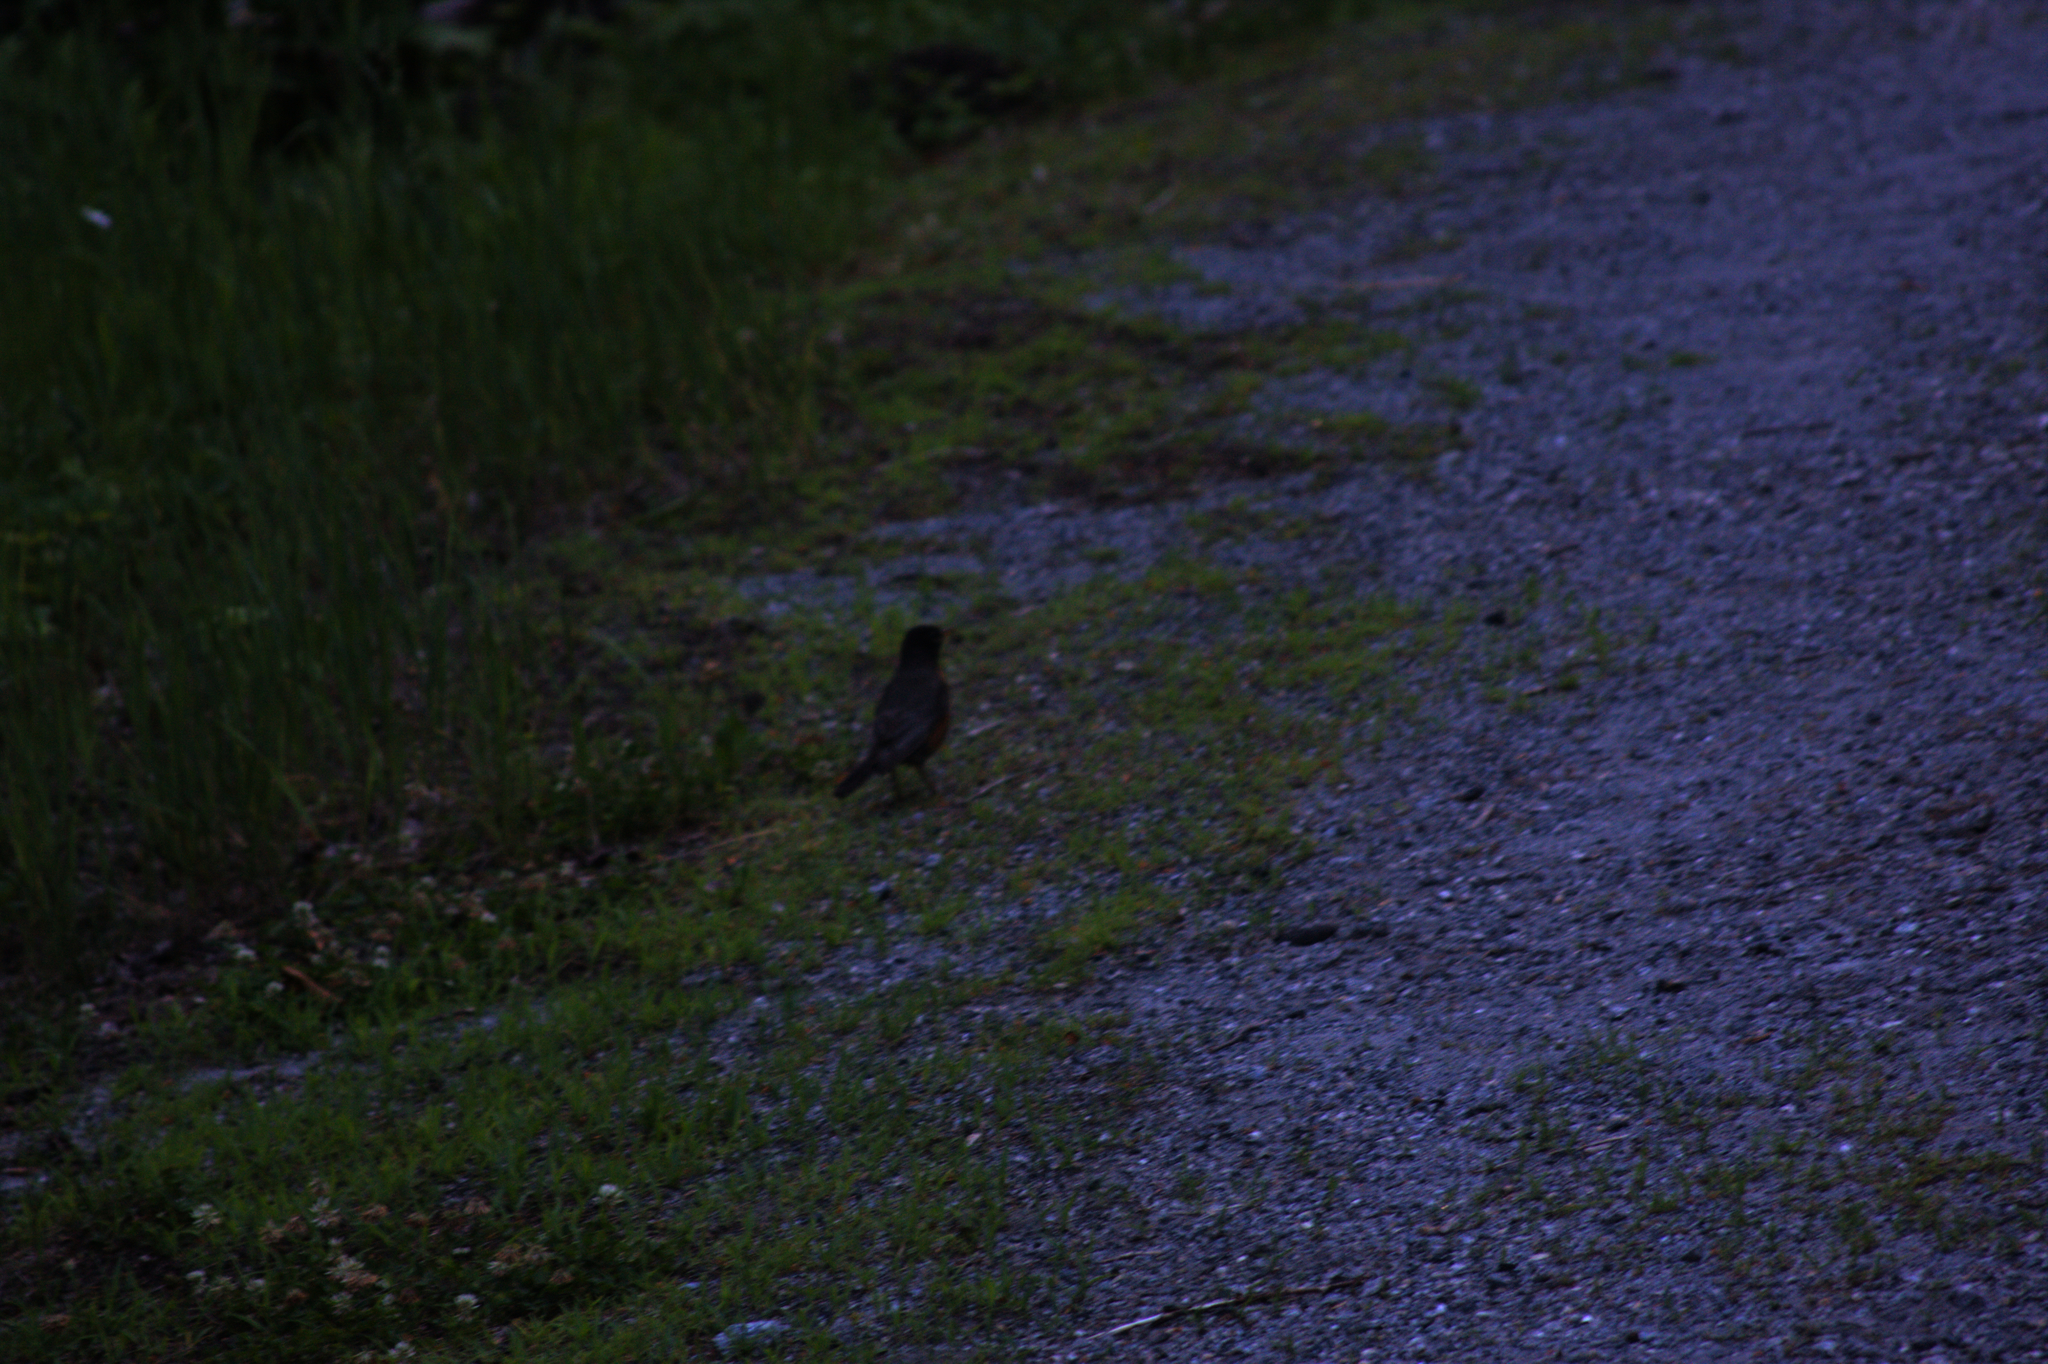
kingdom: Animalia
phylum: Chordata
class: Aves
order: Passeriformes
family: Turdidae
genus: Turdus
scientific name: Turdus migratorius
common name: American robin
